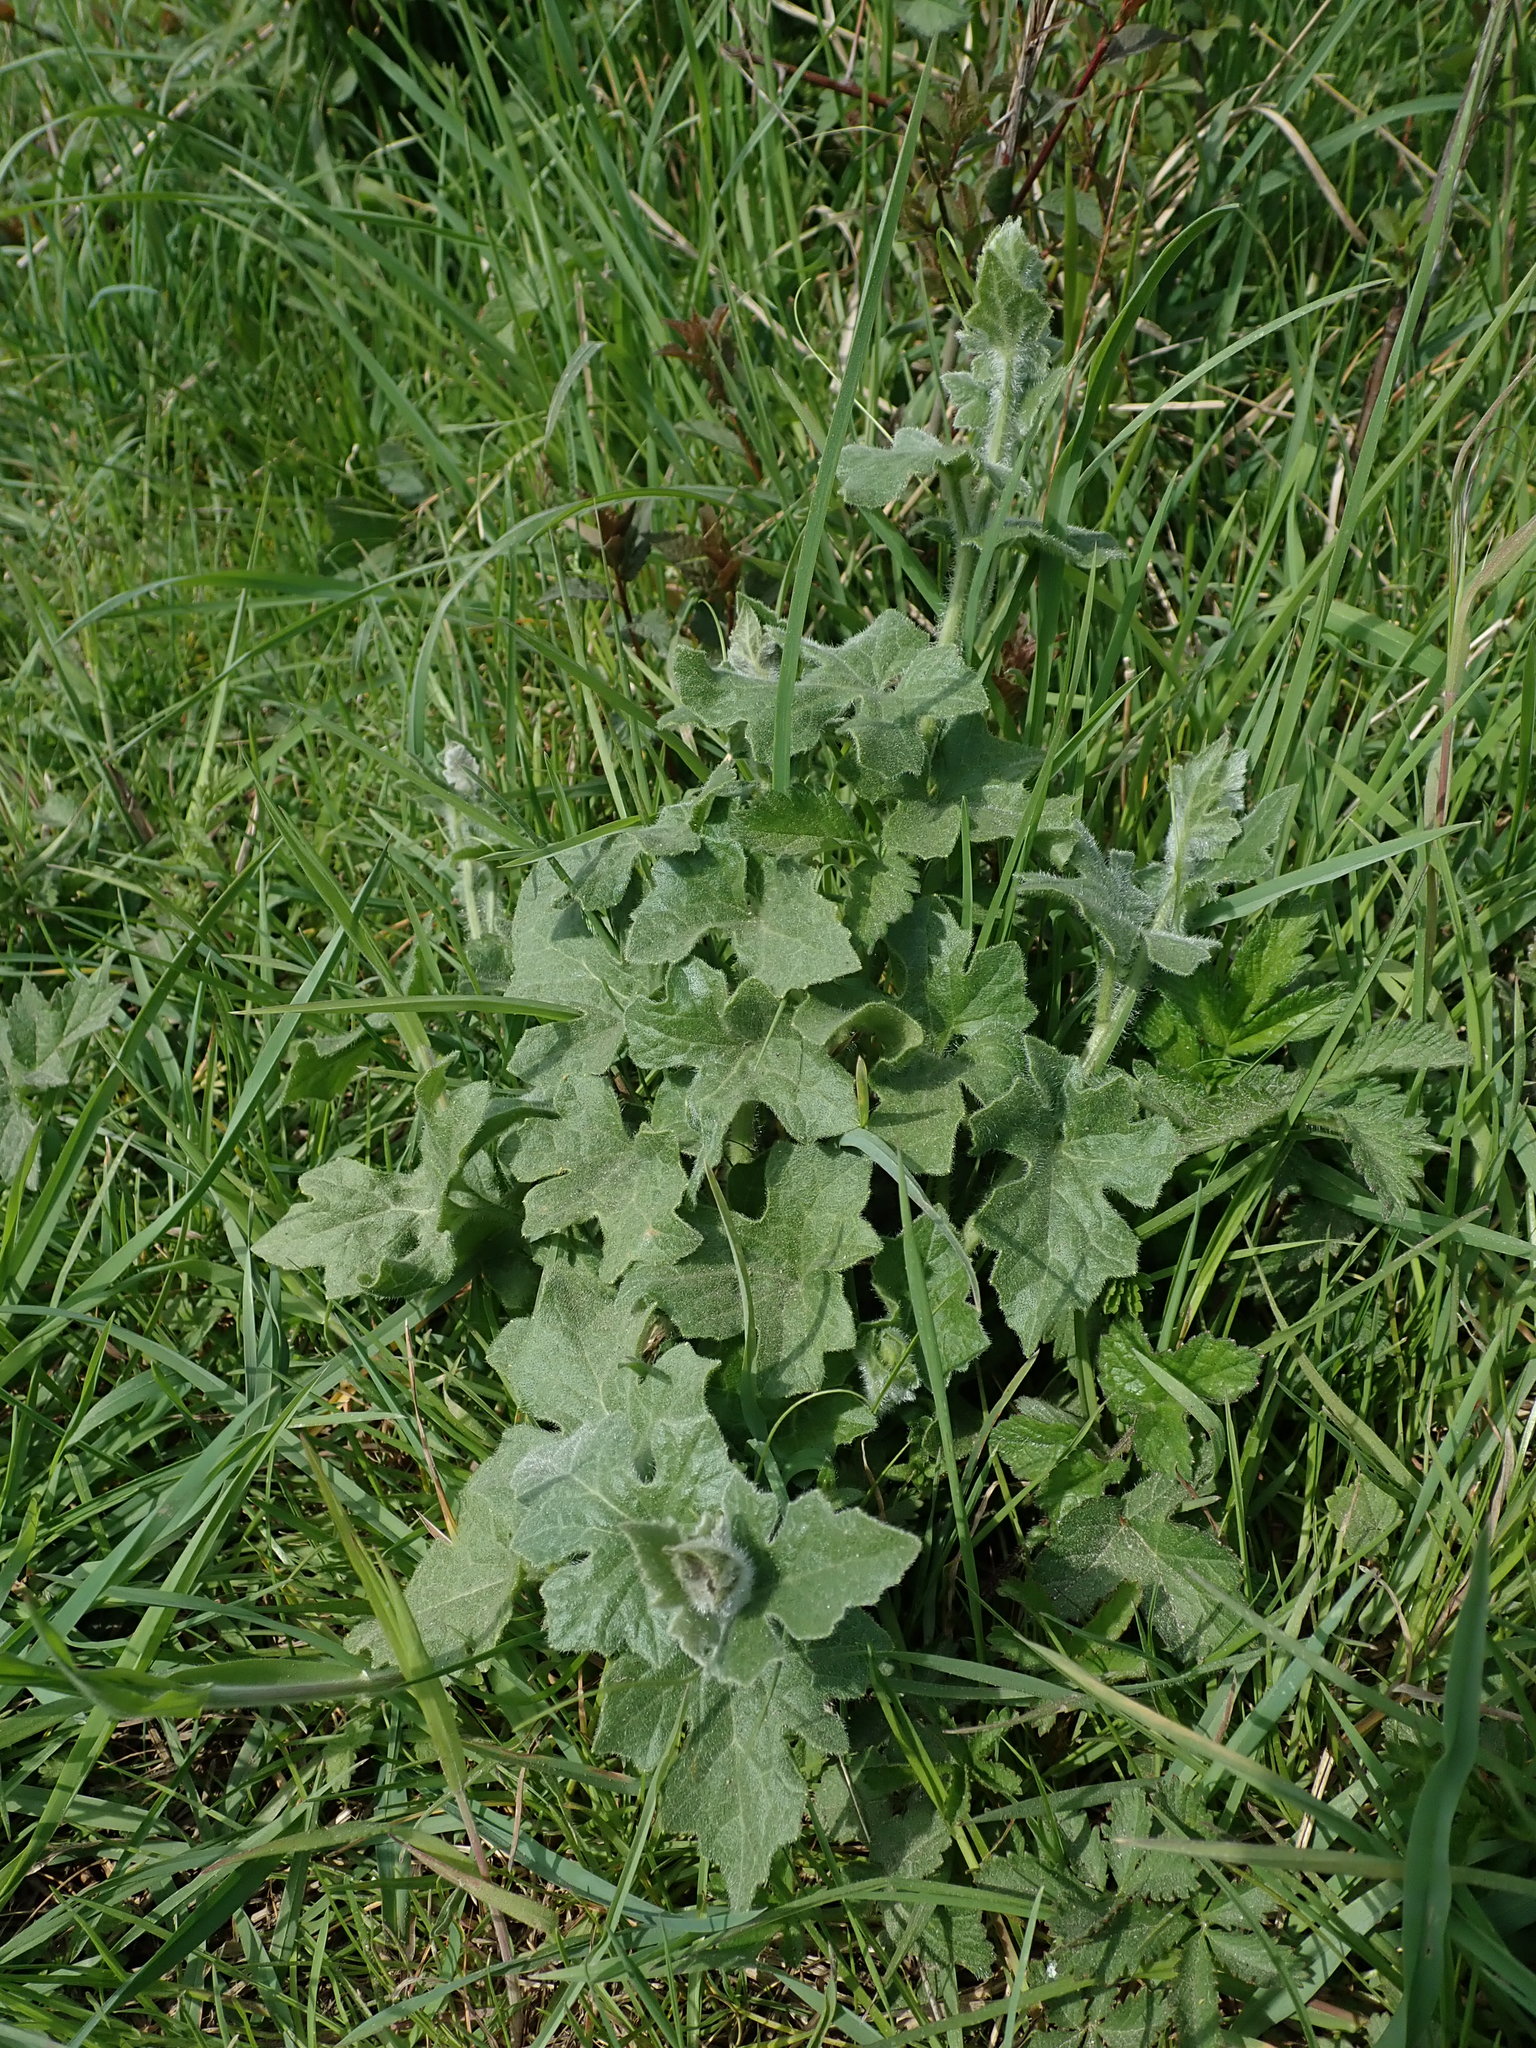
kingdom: Plantae
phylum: Tracheophyta
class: Magnoliopsida
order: Cucurbitales
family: Cucurbitaceae
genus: Bryonia
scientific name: Bryonia cretica
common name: Cretan bryony
